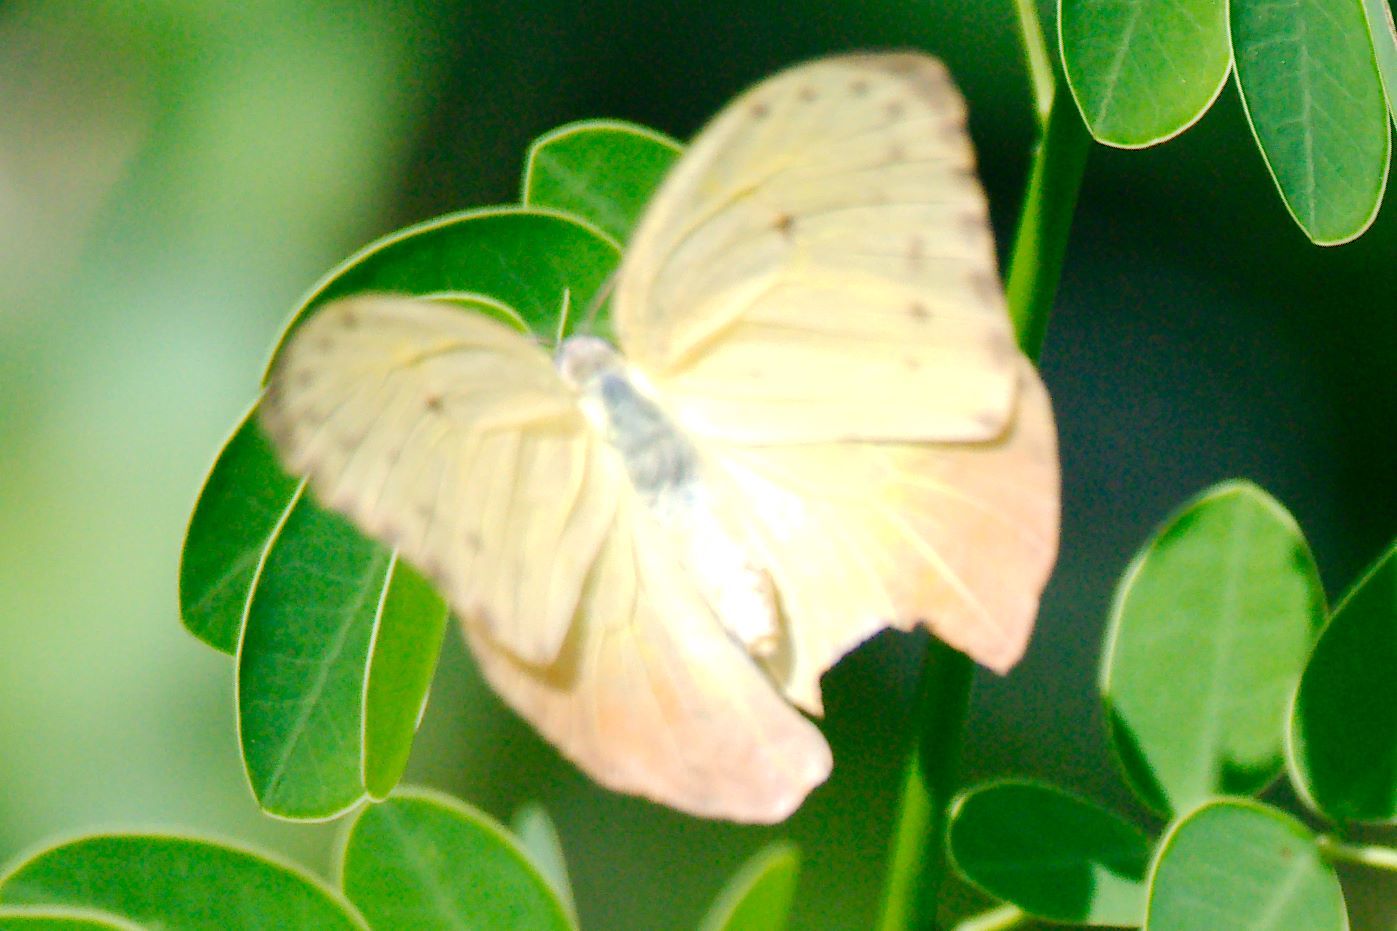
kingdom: Animalia
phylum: Arthropoda
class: Insecta
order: Lepidoptera
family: Pieridae
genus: Phoebis
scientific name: Phoebis philea
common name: Orange-barred giant sulphur
